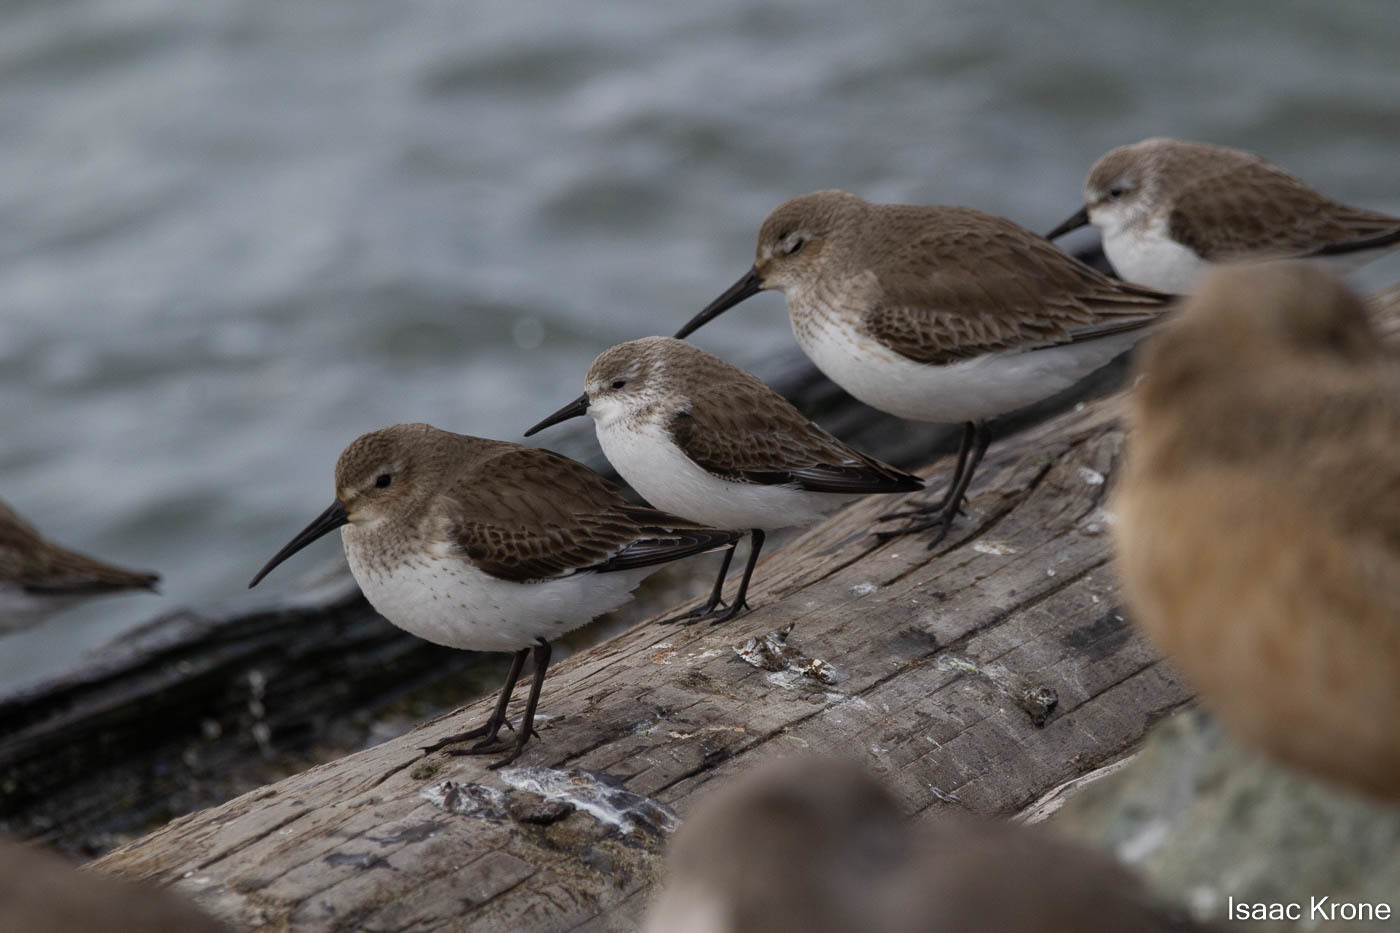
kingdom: Animalia
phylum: Chordata
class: Aves
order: Charadriiformes
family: Scolopacidae
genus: Calidris
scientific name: Calidris mauri
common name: Western sandpiper
